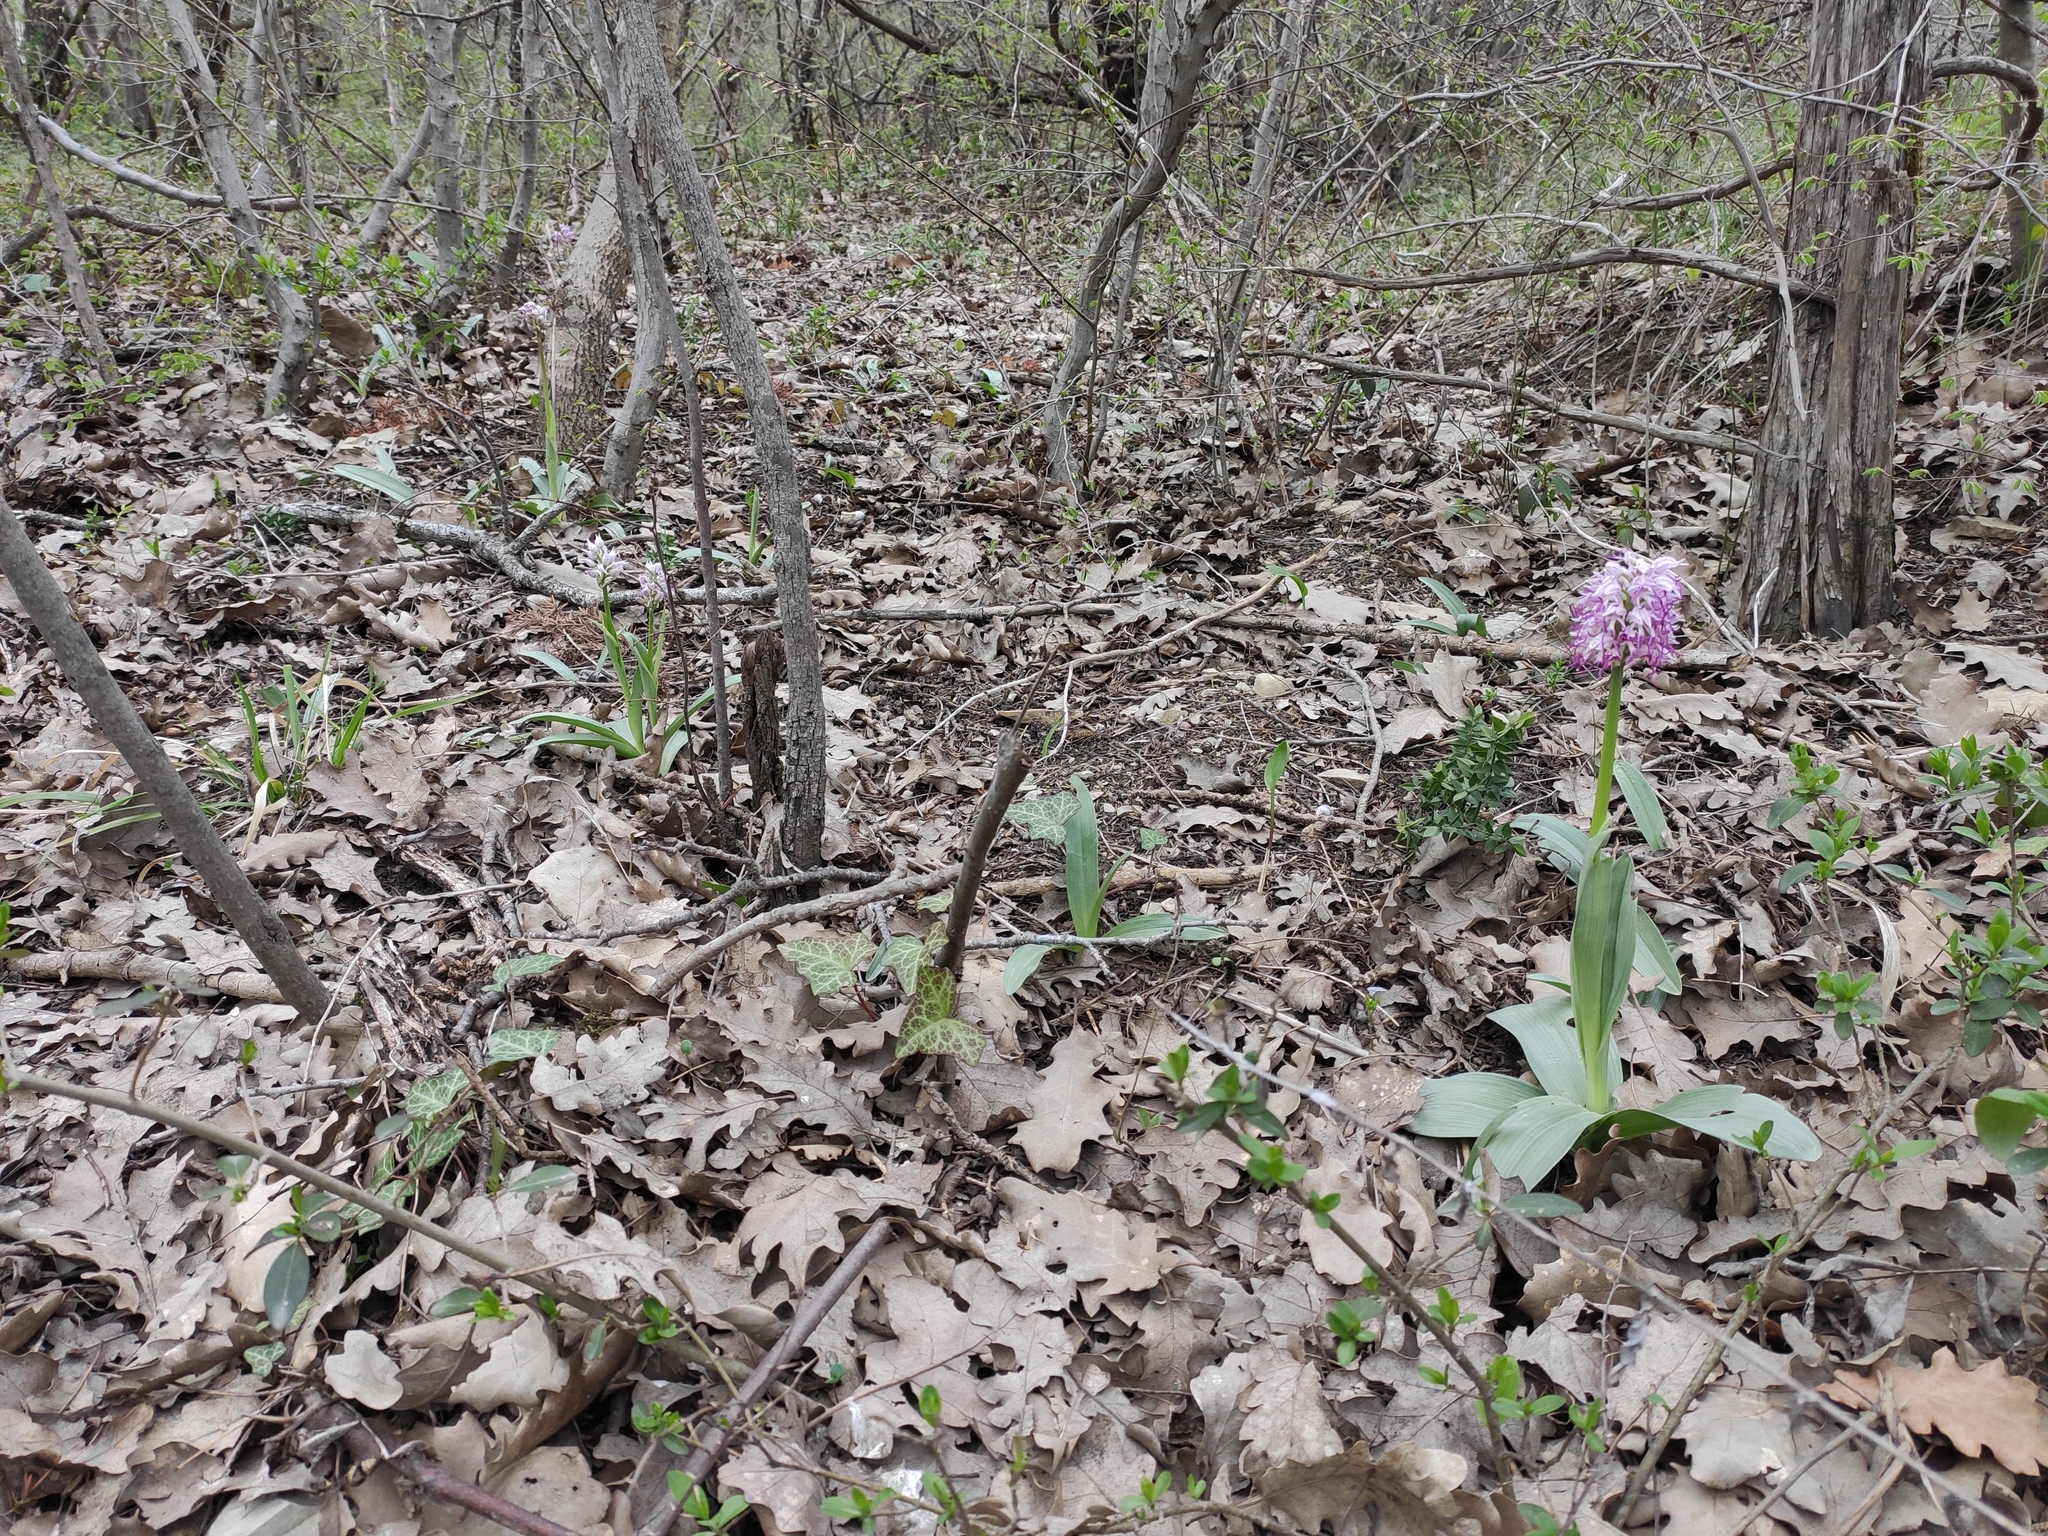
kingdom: Plantae
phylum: Tracheophyta
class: Liliopsida
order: Asparagales
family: Orchidaceae
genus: Orchis
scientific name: Orchis simia
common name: Monkey orchid
